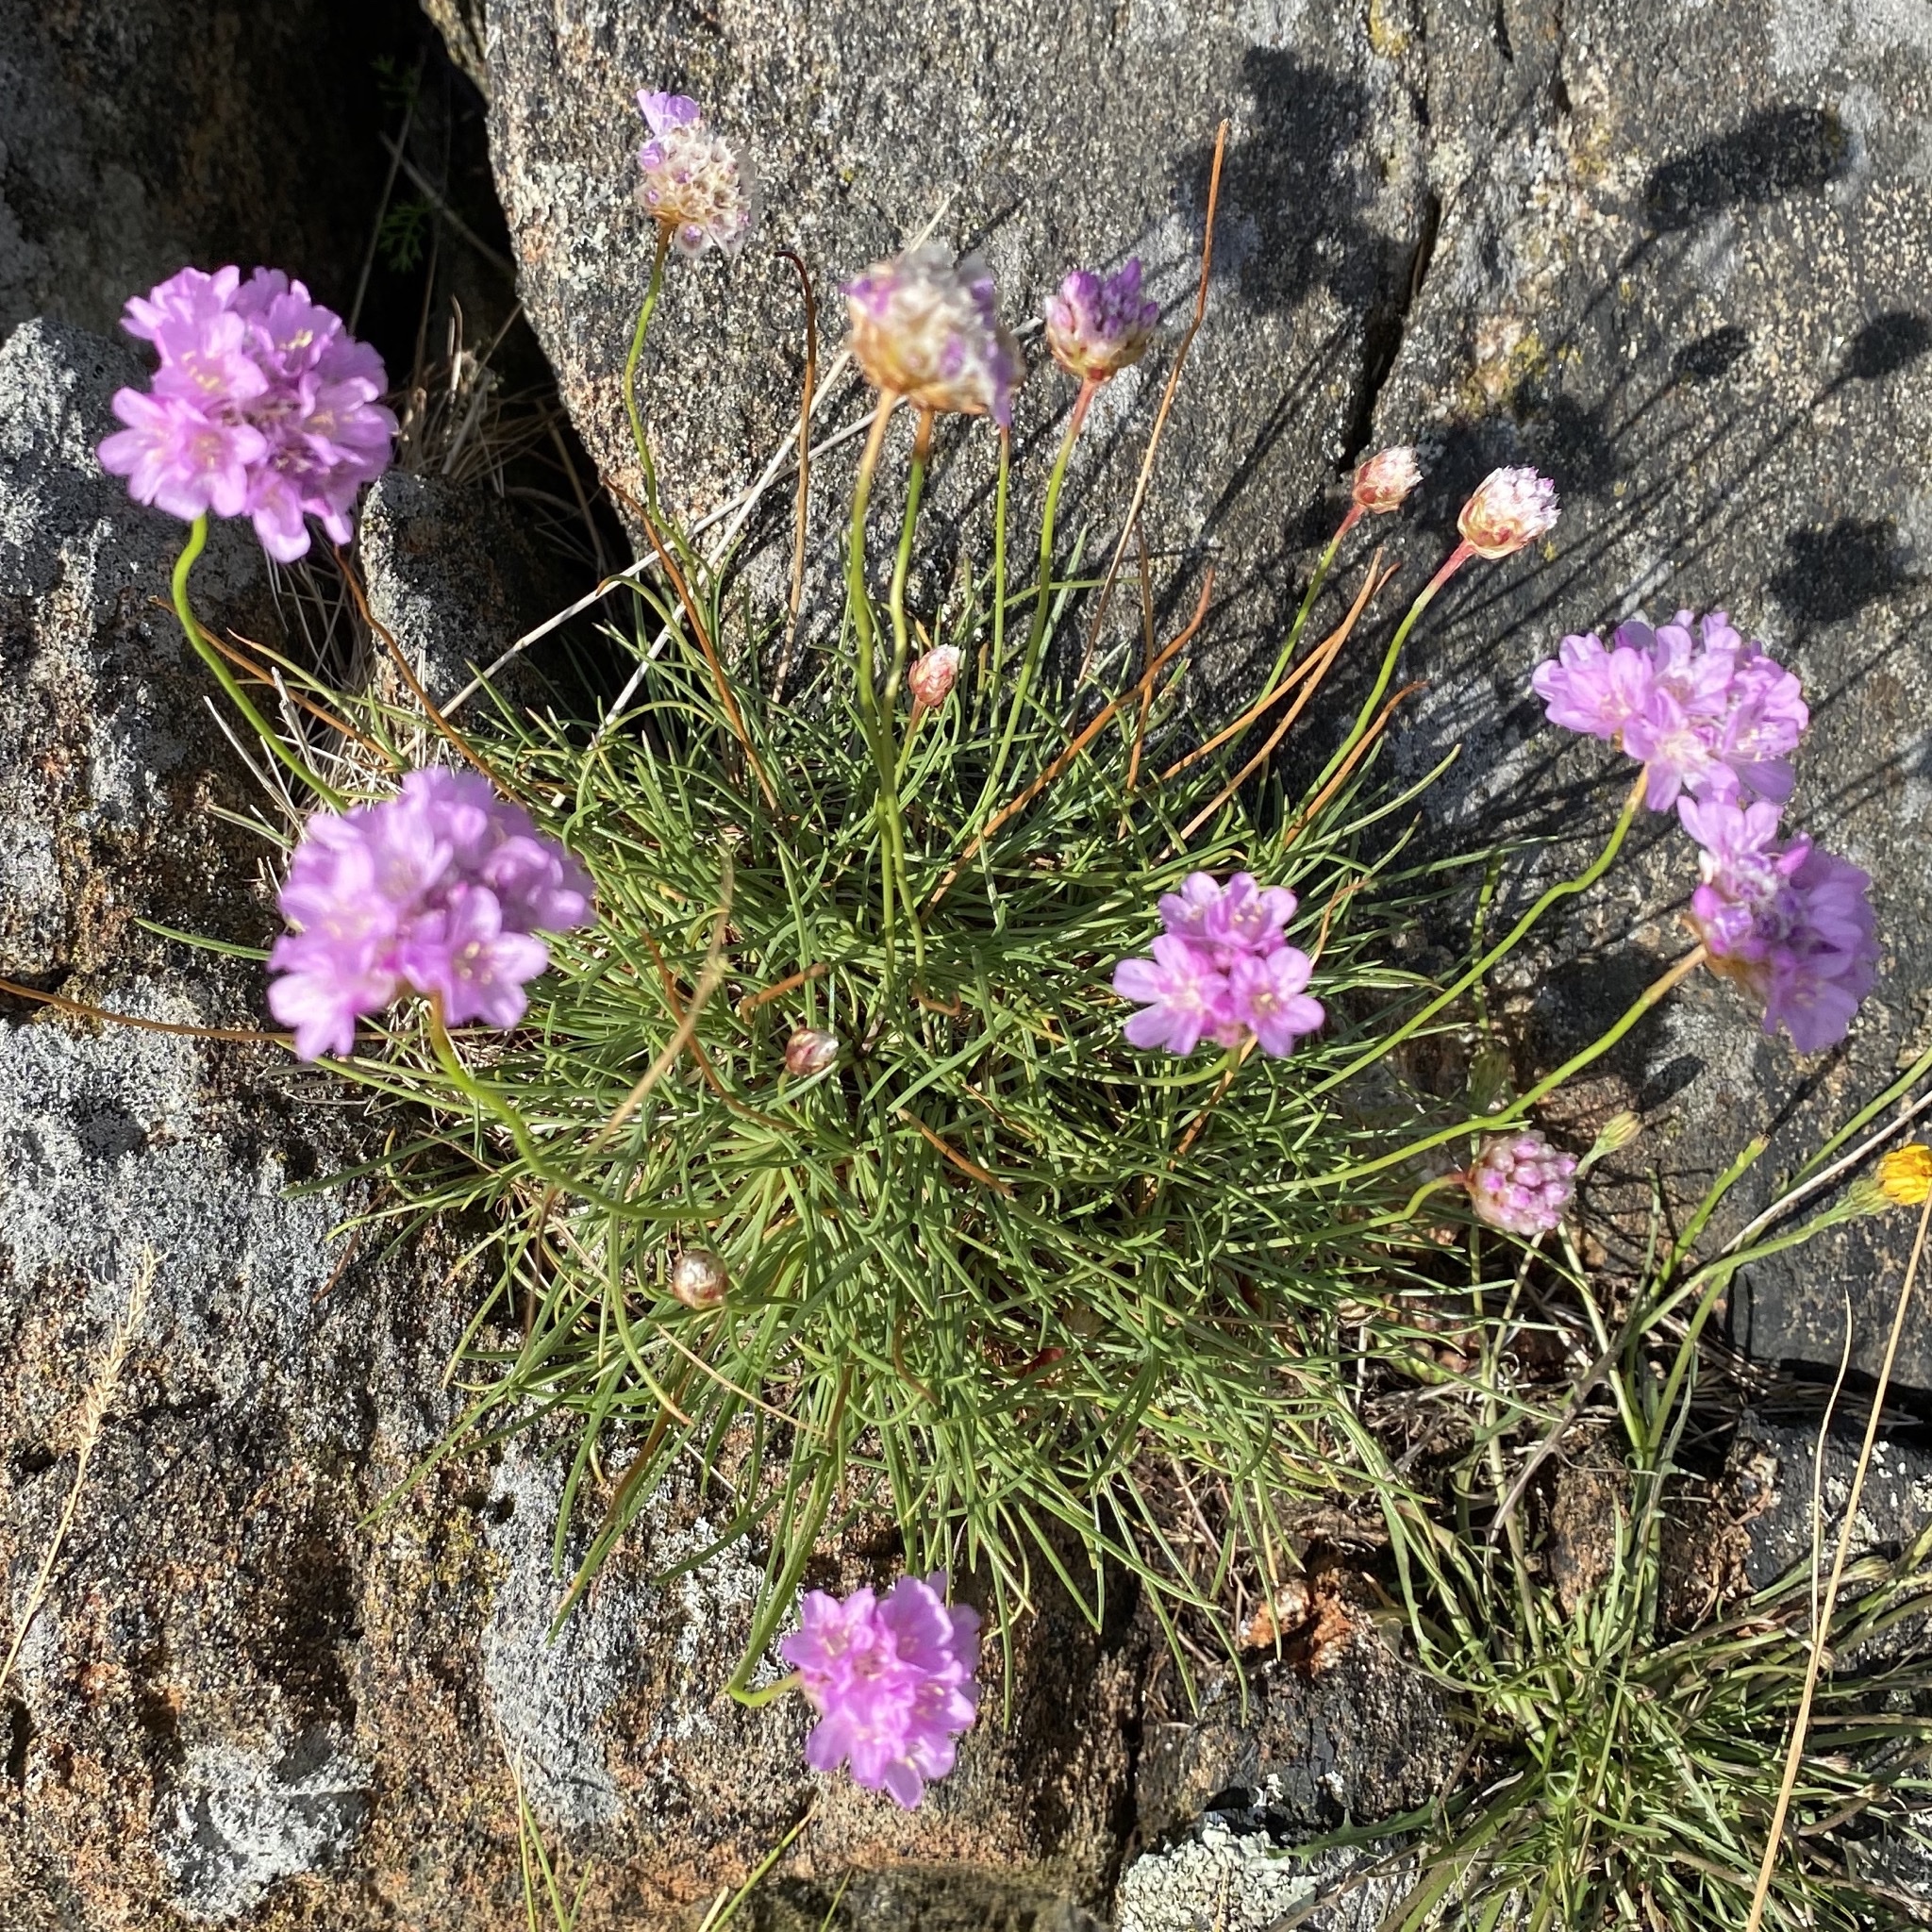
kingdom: Plantae
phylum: Tracheophyta
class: Magnoliopsida
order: Caryophyllales
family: Plumbaginaceae
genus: Armeria
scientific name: Armeria maritima
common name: Thrift
